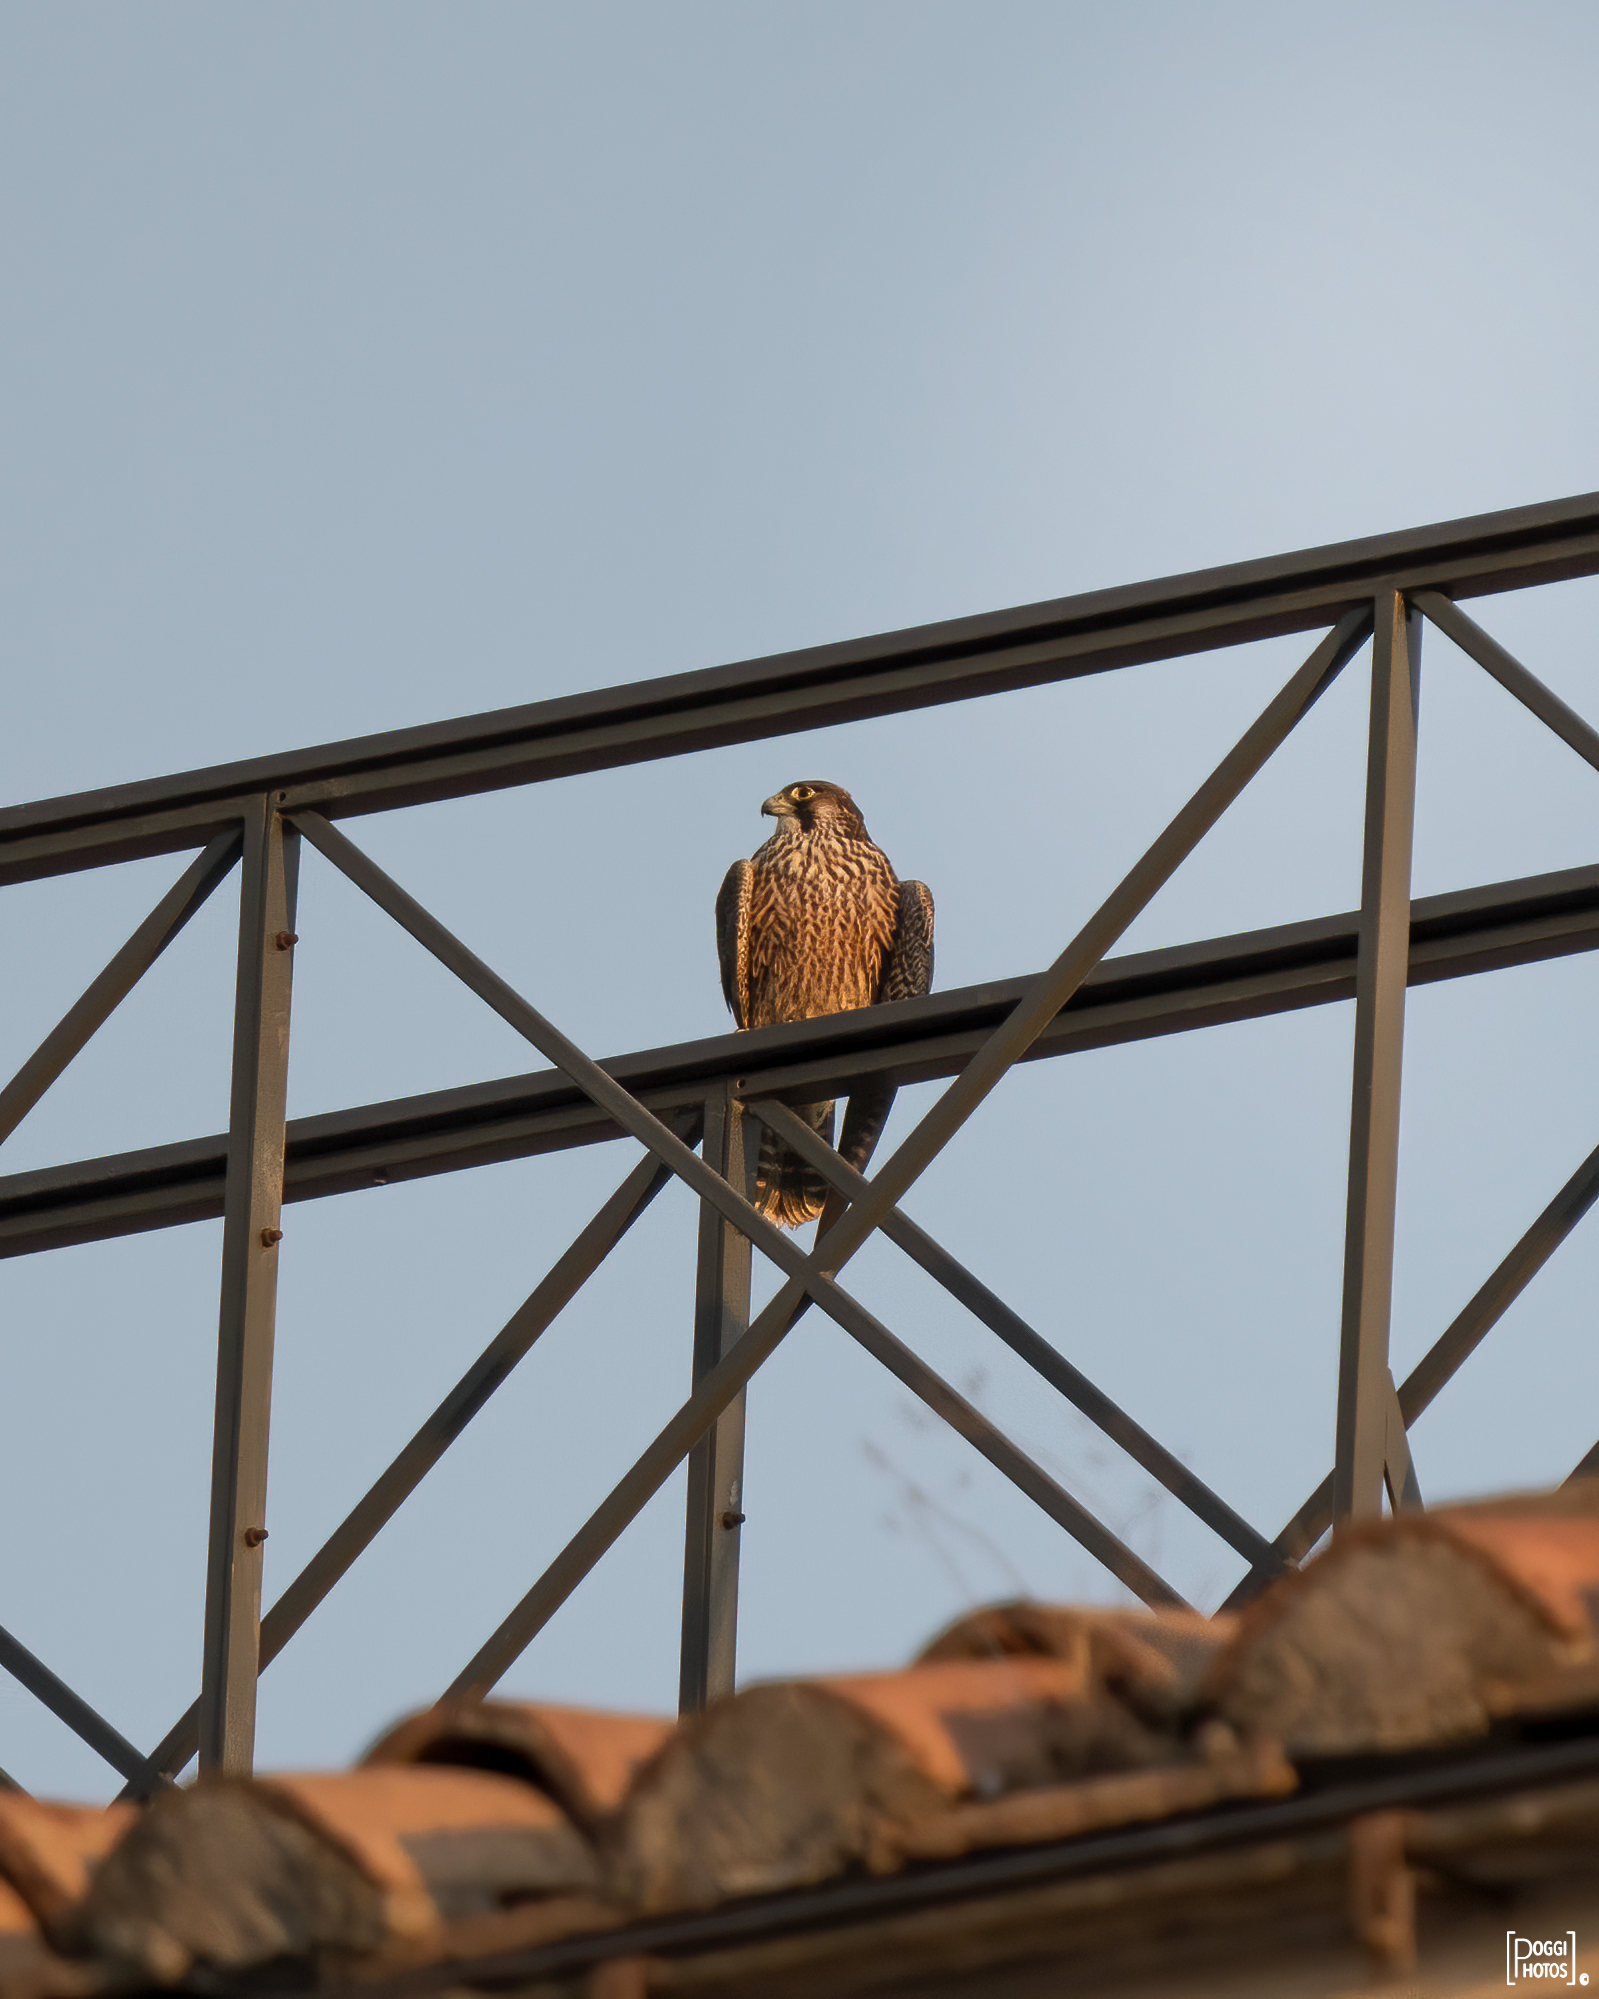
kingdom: Animalia
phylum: Chordata
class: Aves
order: Falconiformes
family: Falconidae
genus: Falco
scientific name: Falco peregrinus
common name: Peregrine falcon
